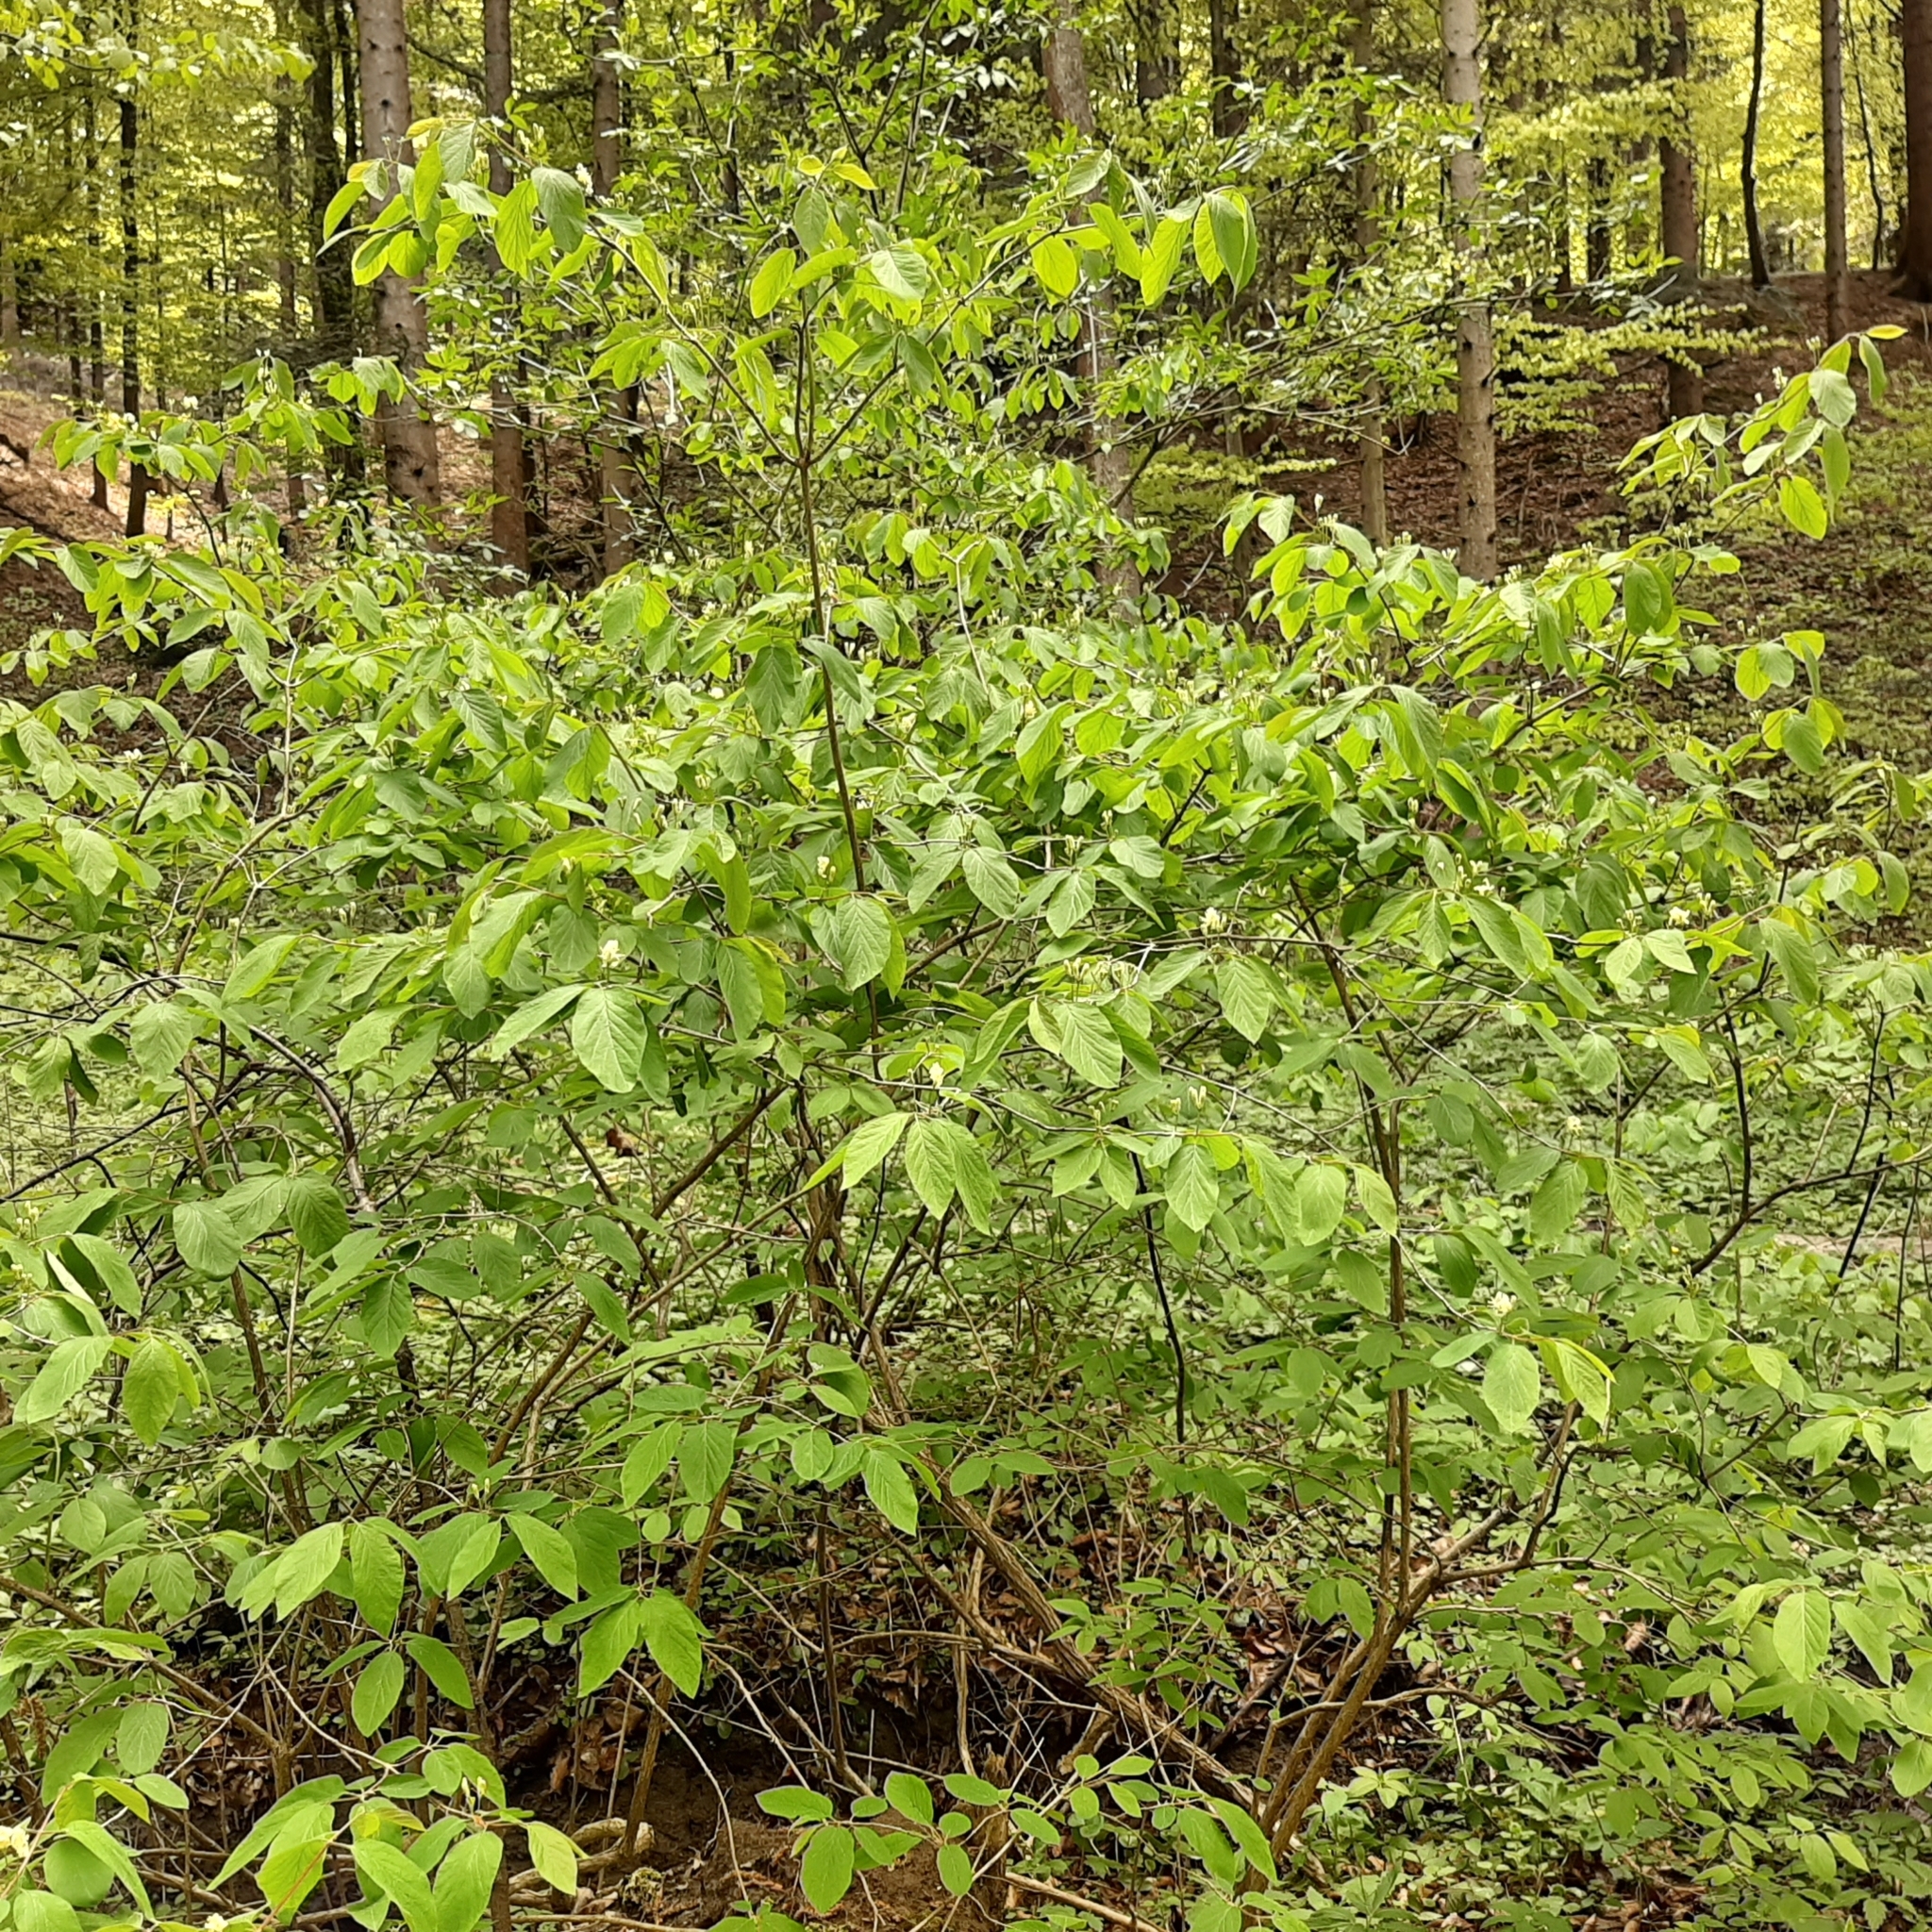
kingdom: Plantae
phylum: Tracheophyta
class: Magnoliopsida
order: Dipsacales
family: Caprifoliaceae
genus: Lonicera
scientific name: Lonicera xylosteum
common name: Fly honeysuckle
